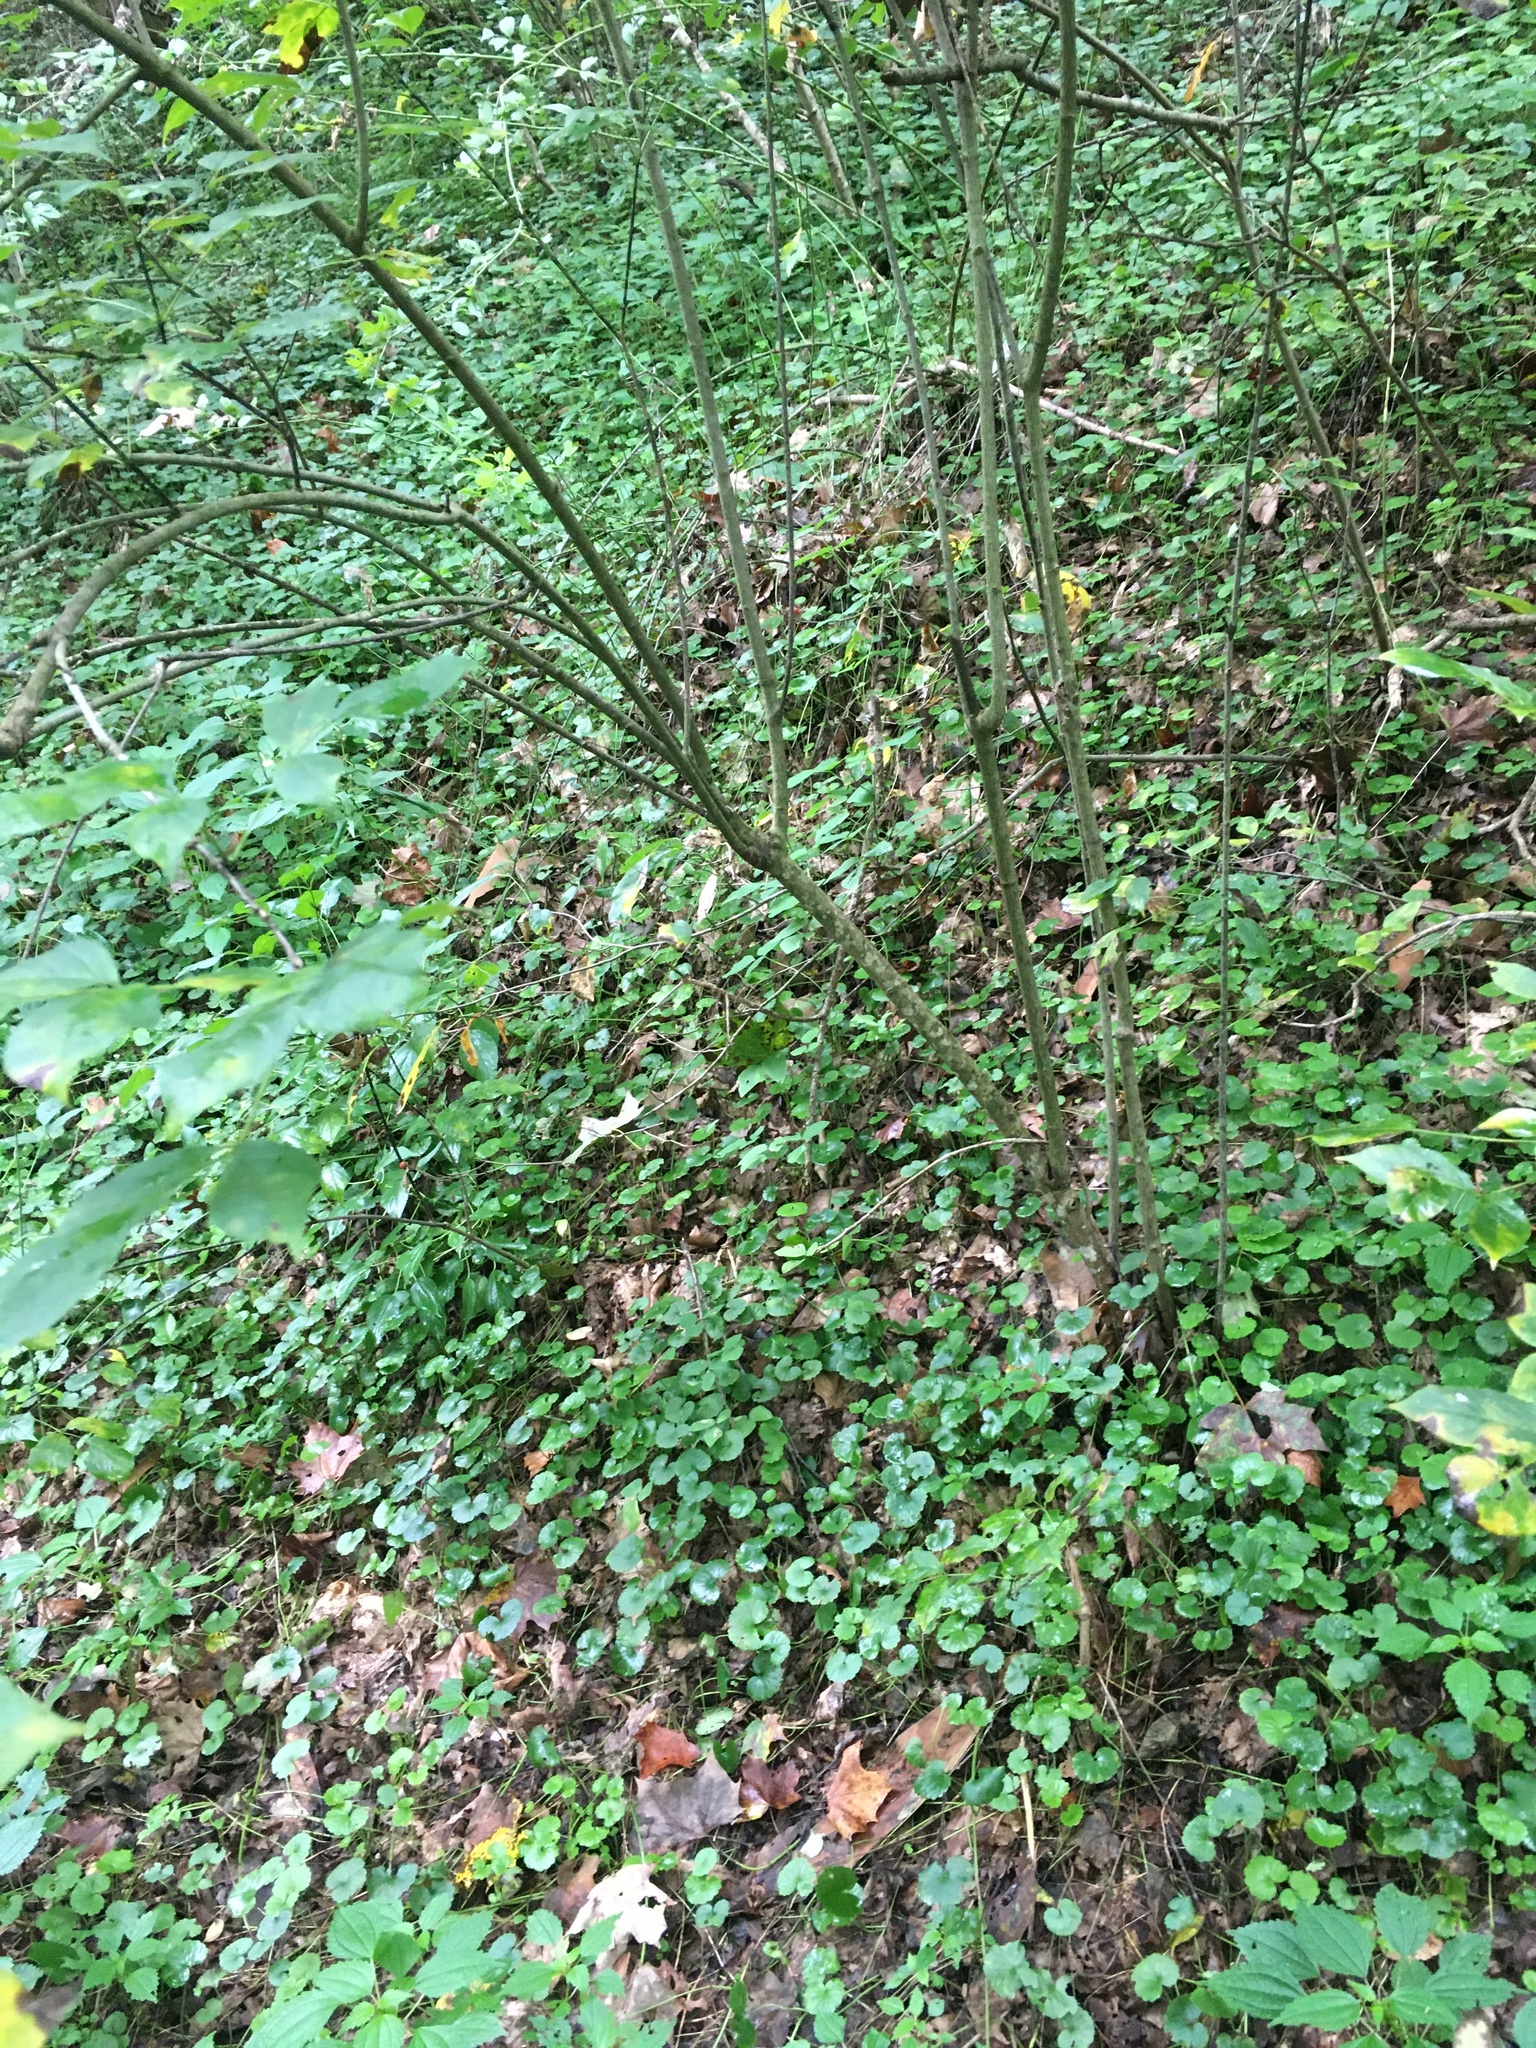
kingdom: Plantae
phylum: Tracheophyta
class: Magnoliopsida
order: Crossosomatales
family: Staphyleaceae
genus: Staphylea
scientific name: Staphylea trifolia
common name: American bladdernut
